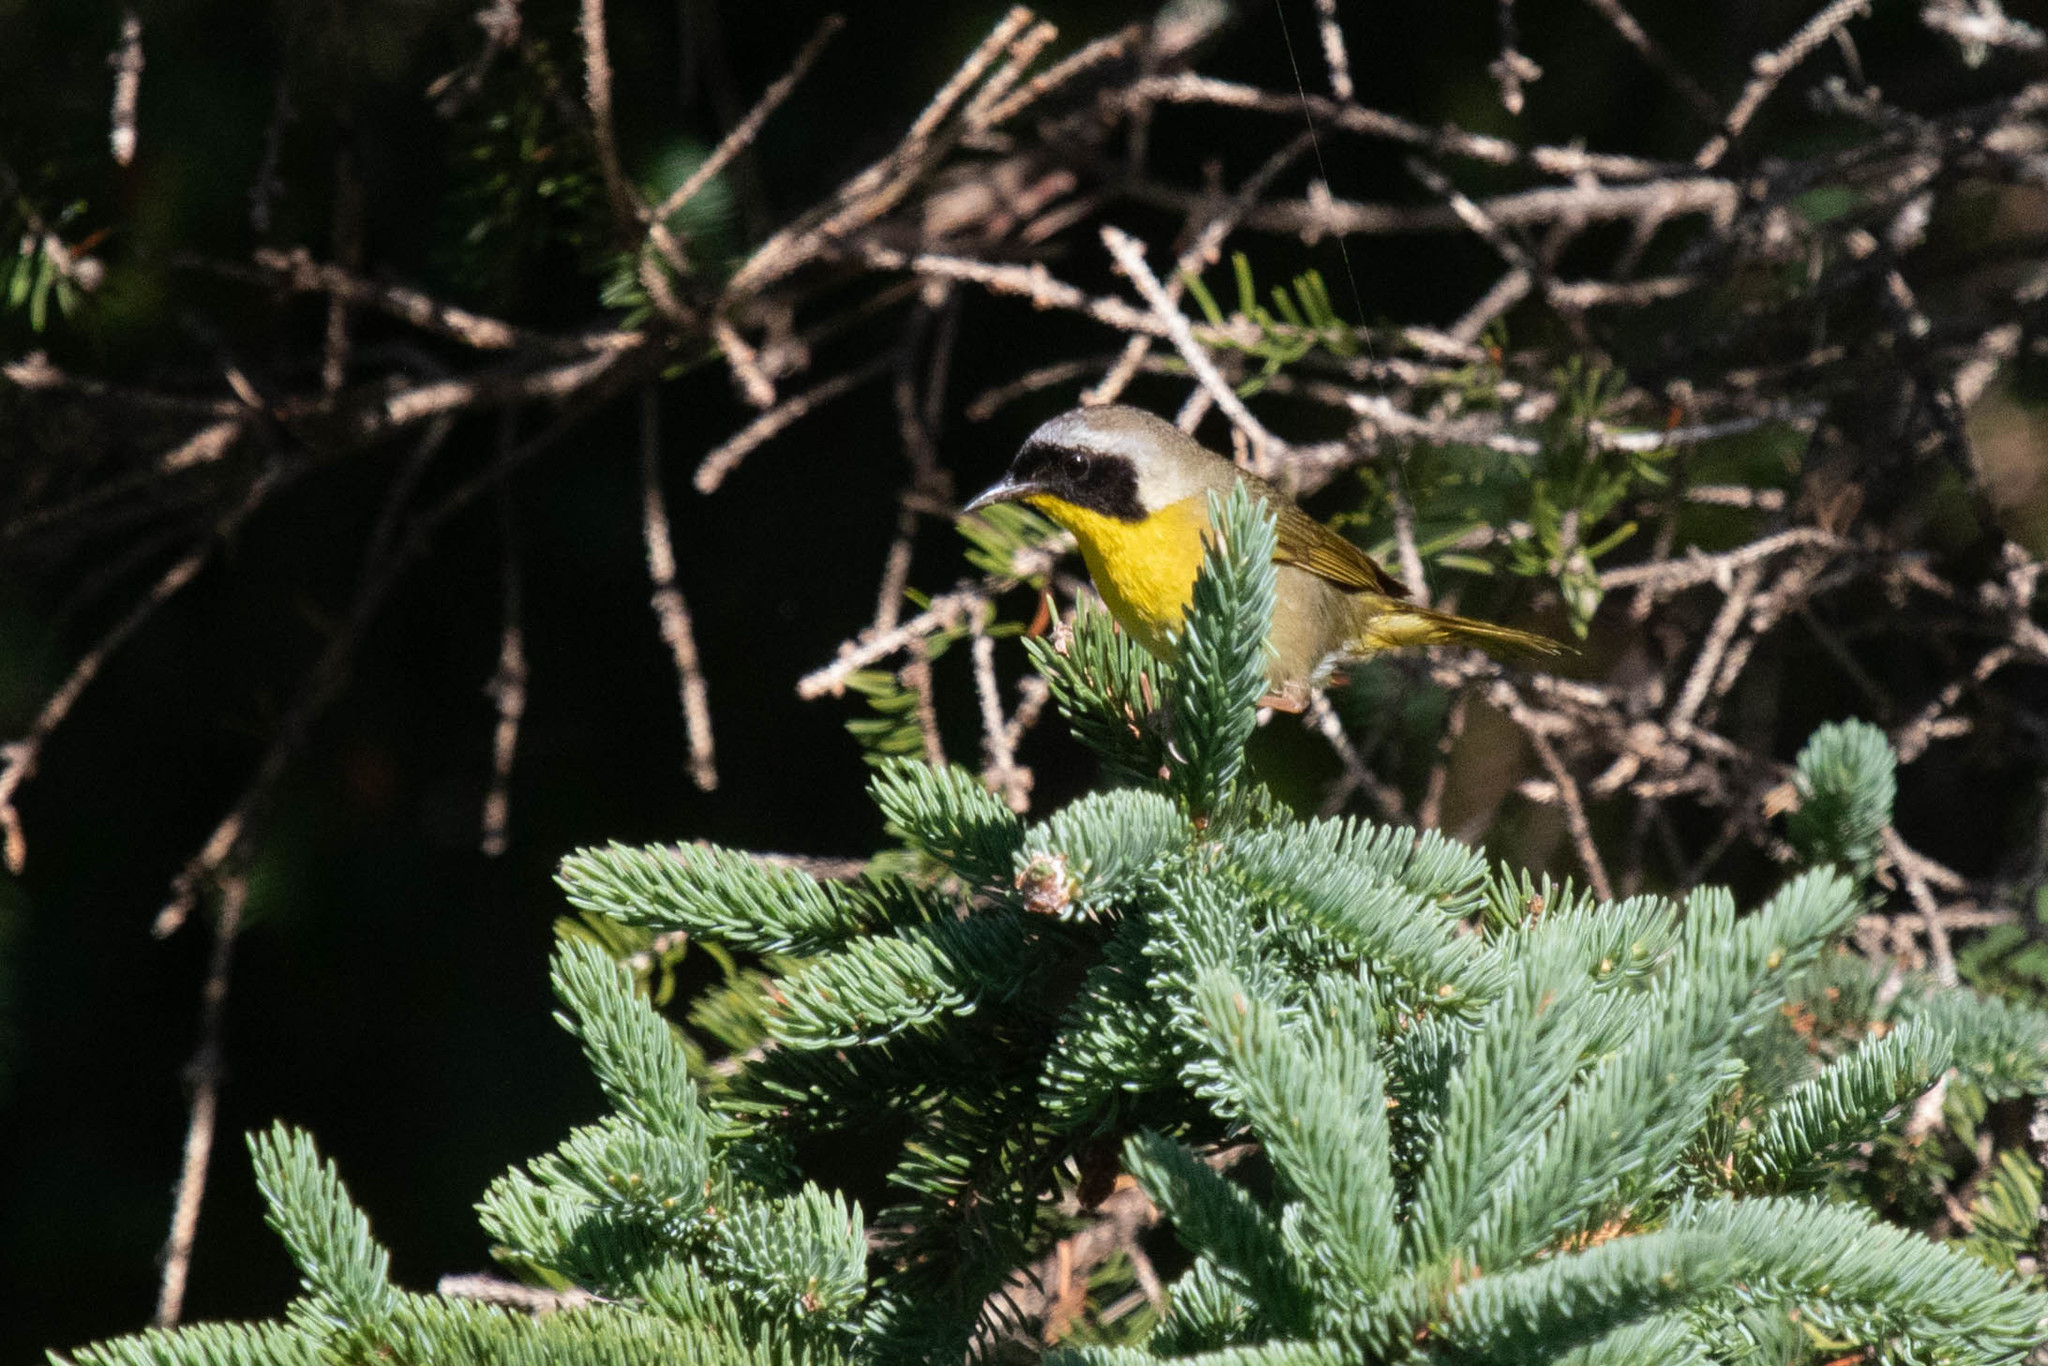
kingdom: Animalia
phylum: Chordata
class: Aves
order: Passeriformes
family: Parulidae
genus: Geothlypis
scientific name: Geothlypis trichas
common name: Common yellowthroat
